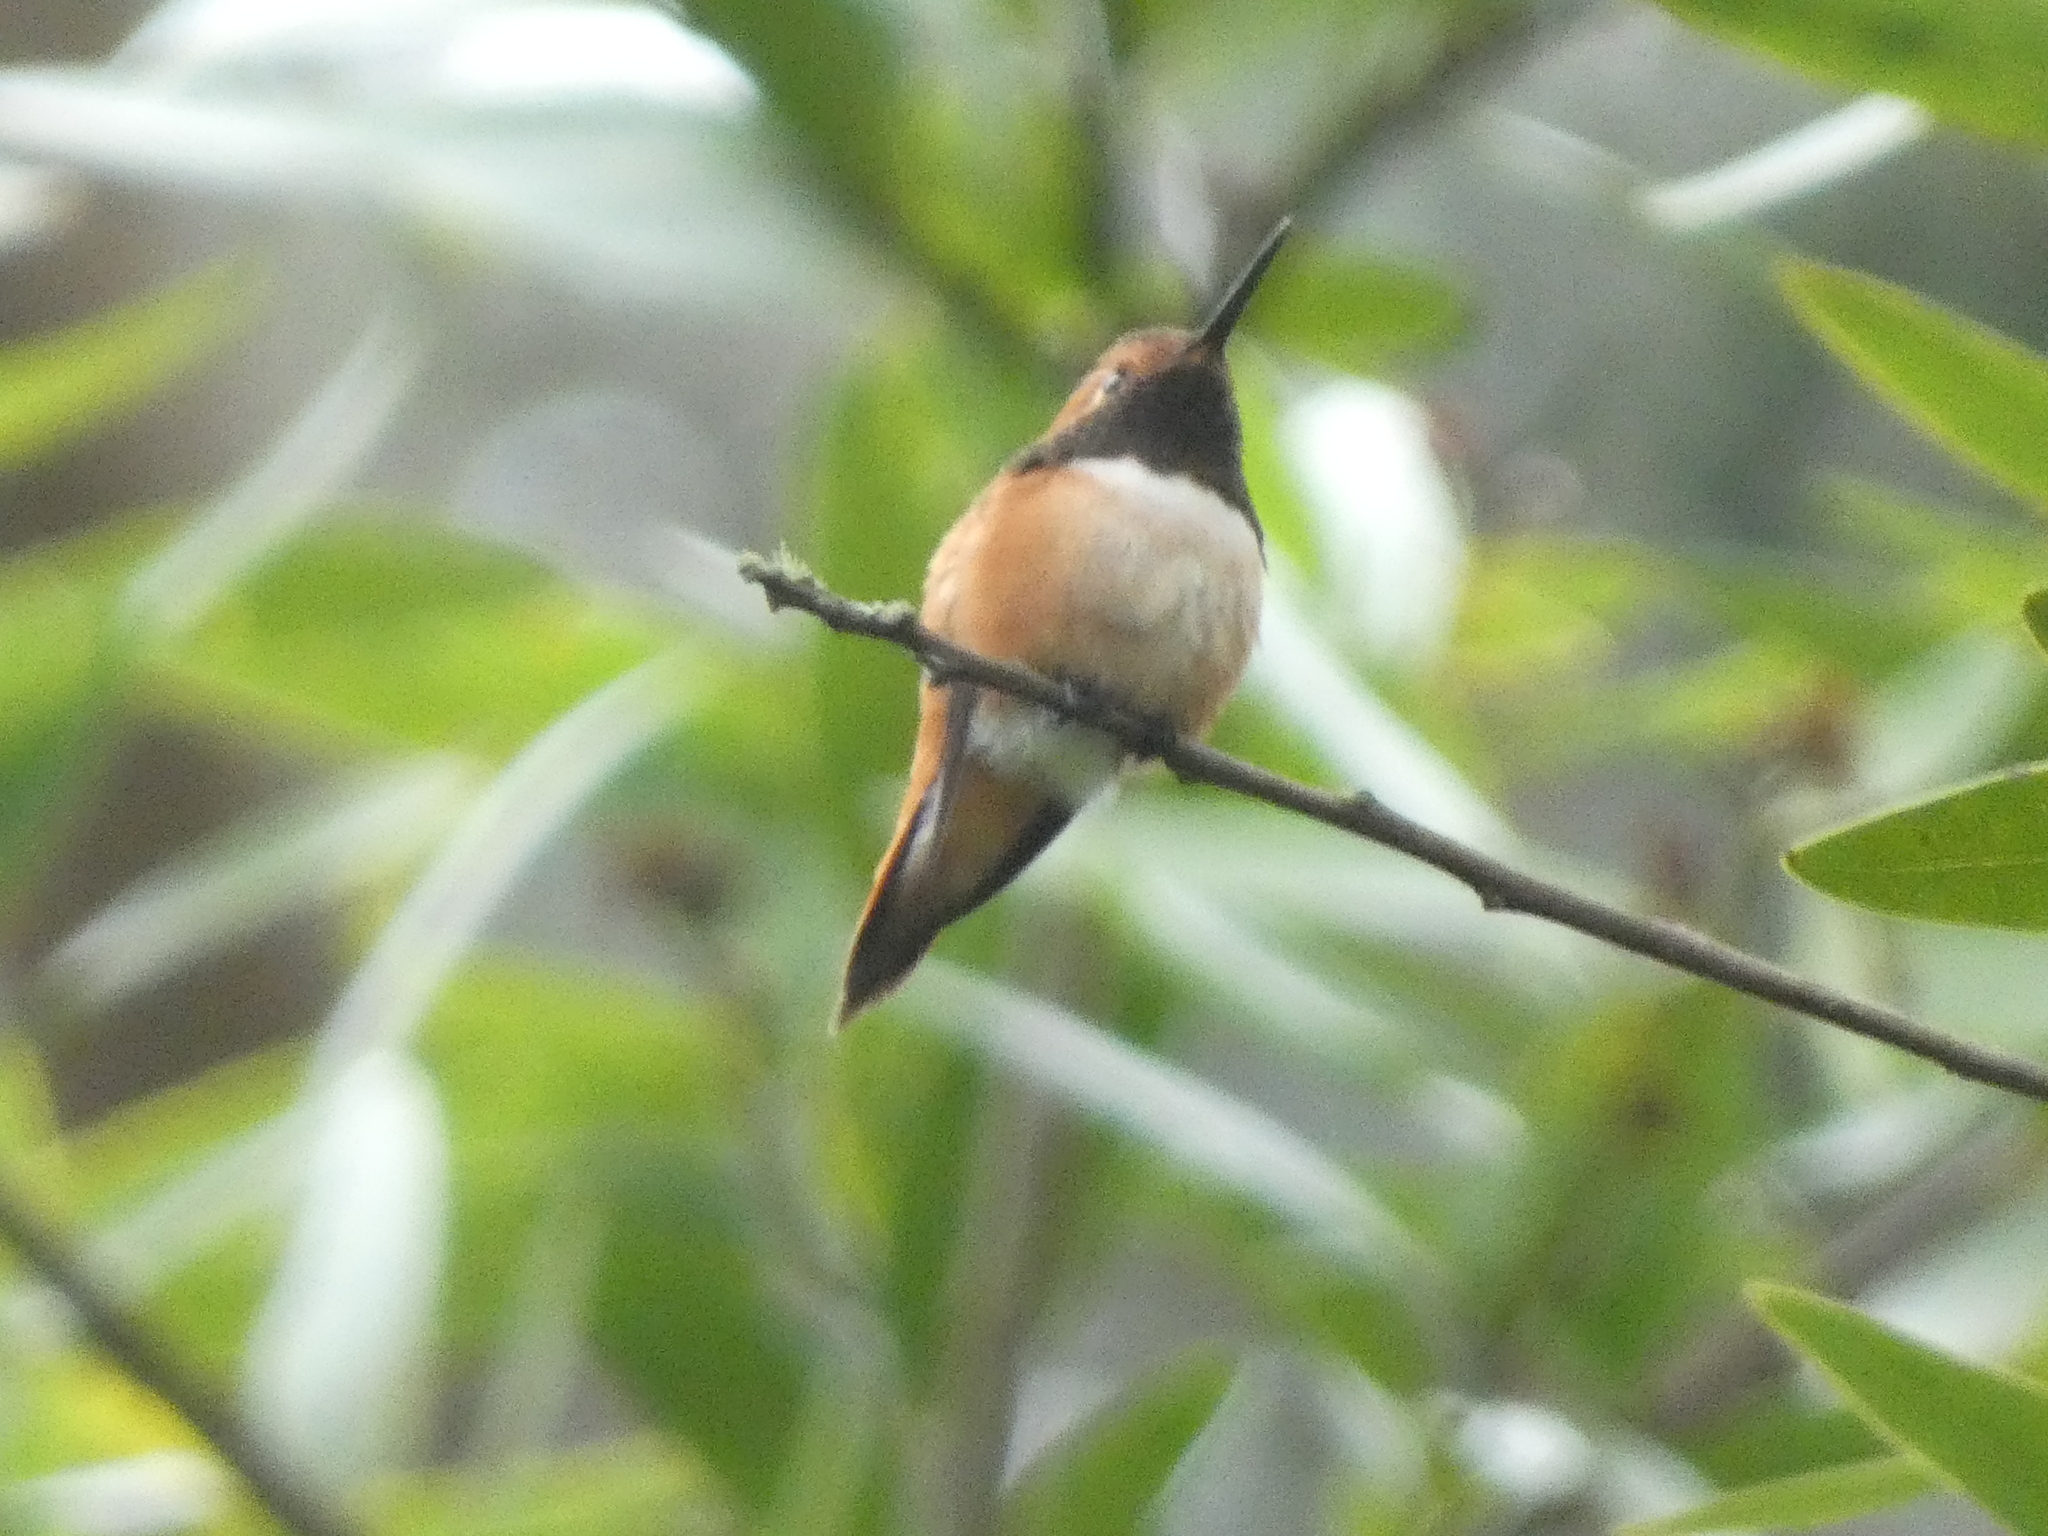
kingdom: Animalia
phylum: Chordata
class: Aves
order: Apodiformes
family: Trochilidae
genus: Selasphorus
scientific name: Selasphorus
